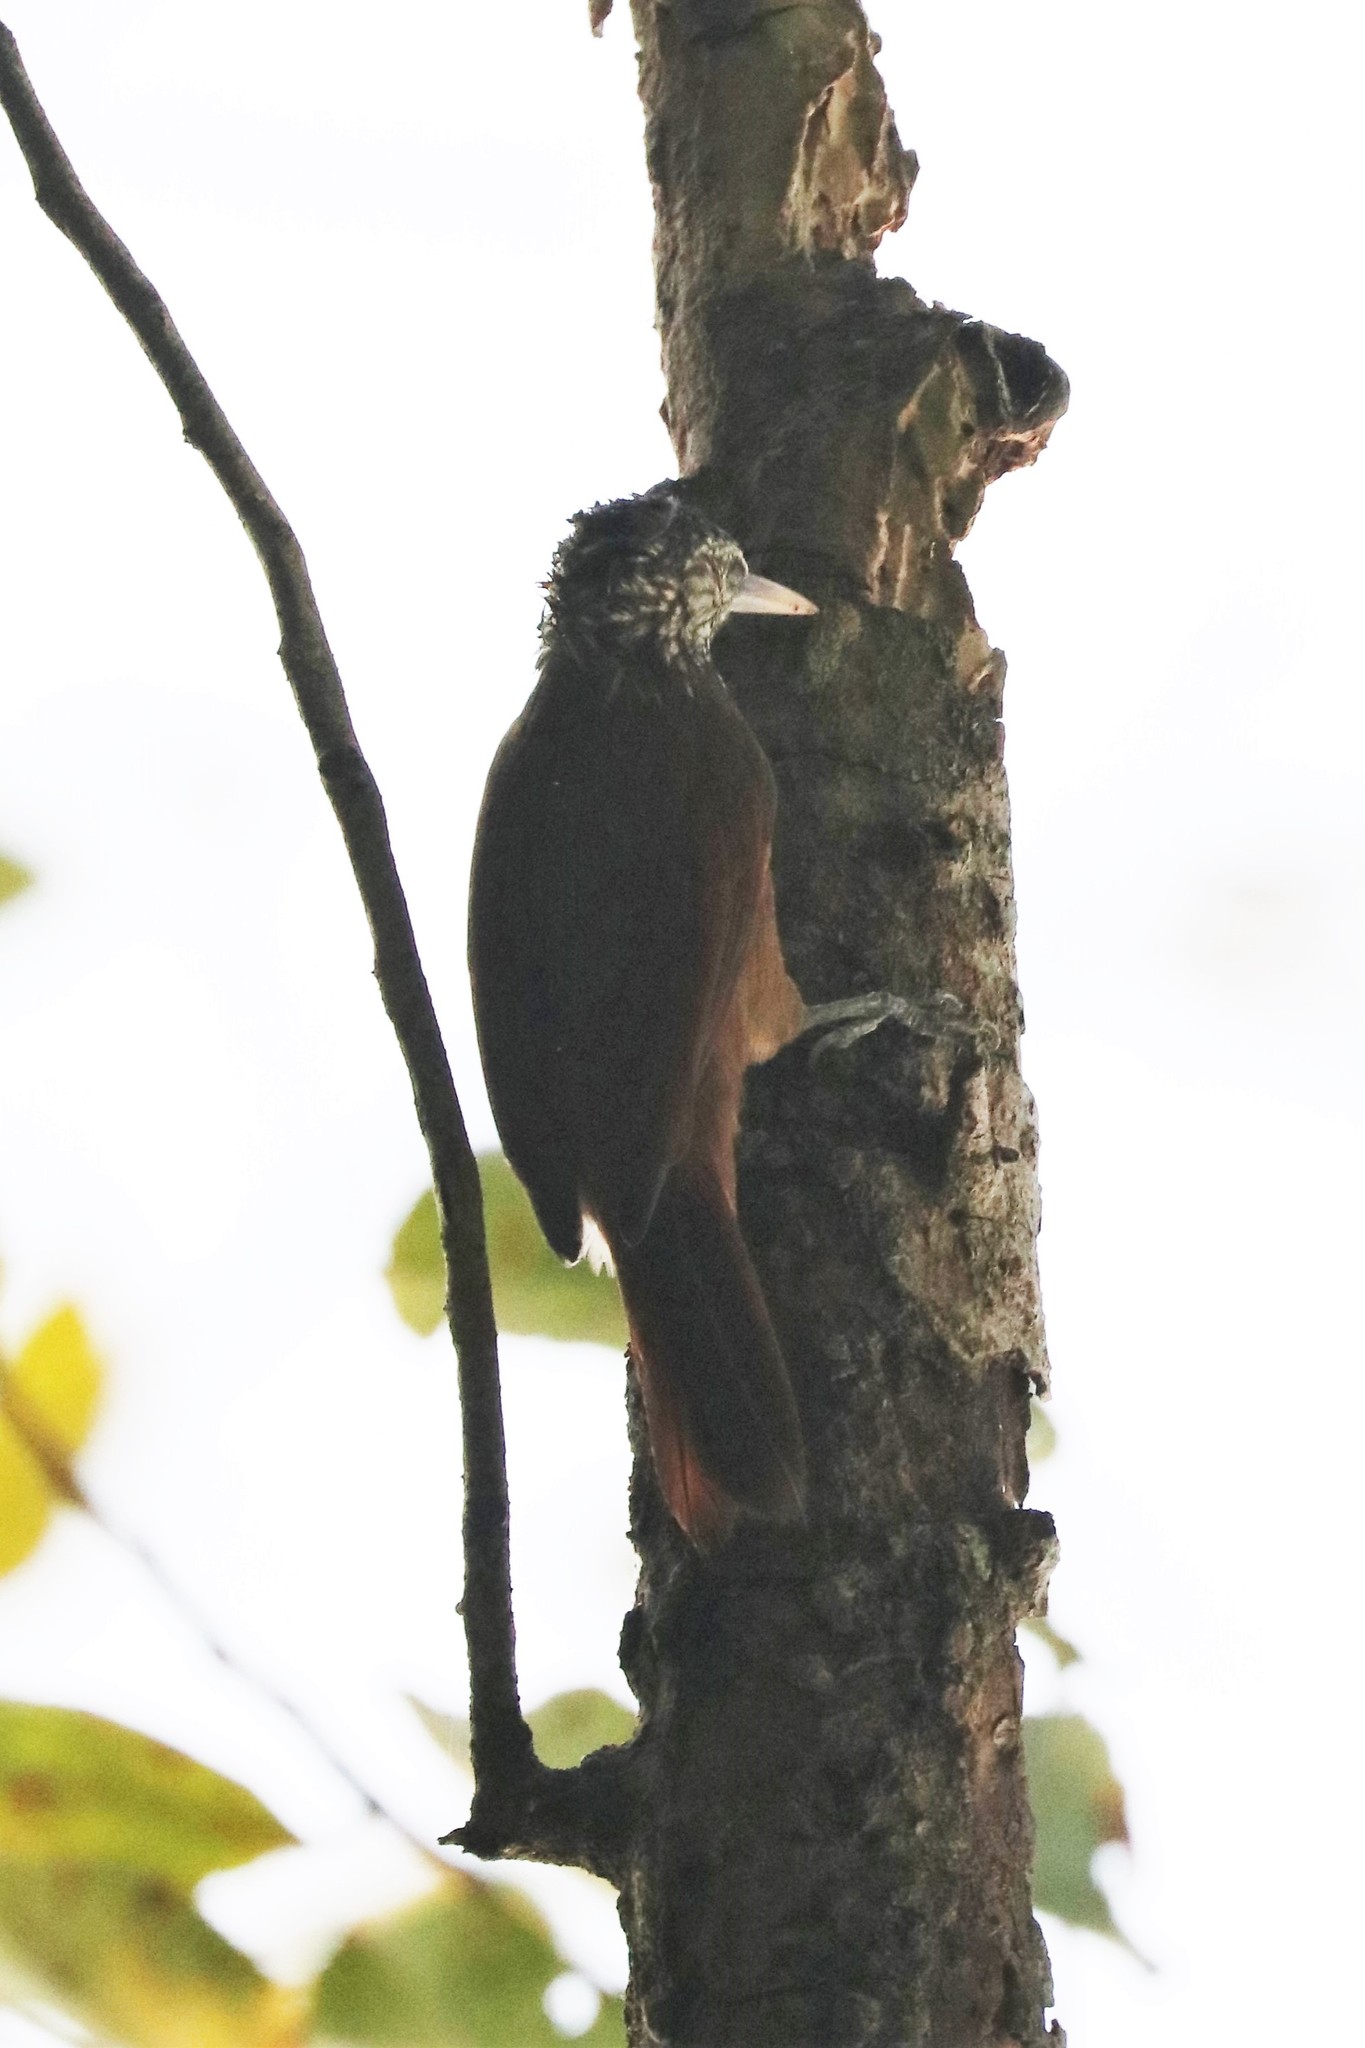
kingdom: Animalia
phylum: Chordata
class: Aves
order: Passeriformes
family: Furnariidae
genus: Xiphorhynchus
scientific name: Xiphorhynchus picus
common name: Straight-billed woodcreeper
